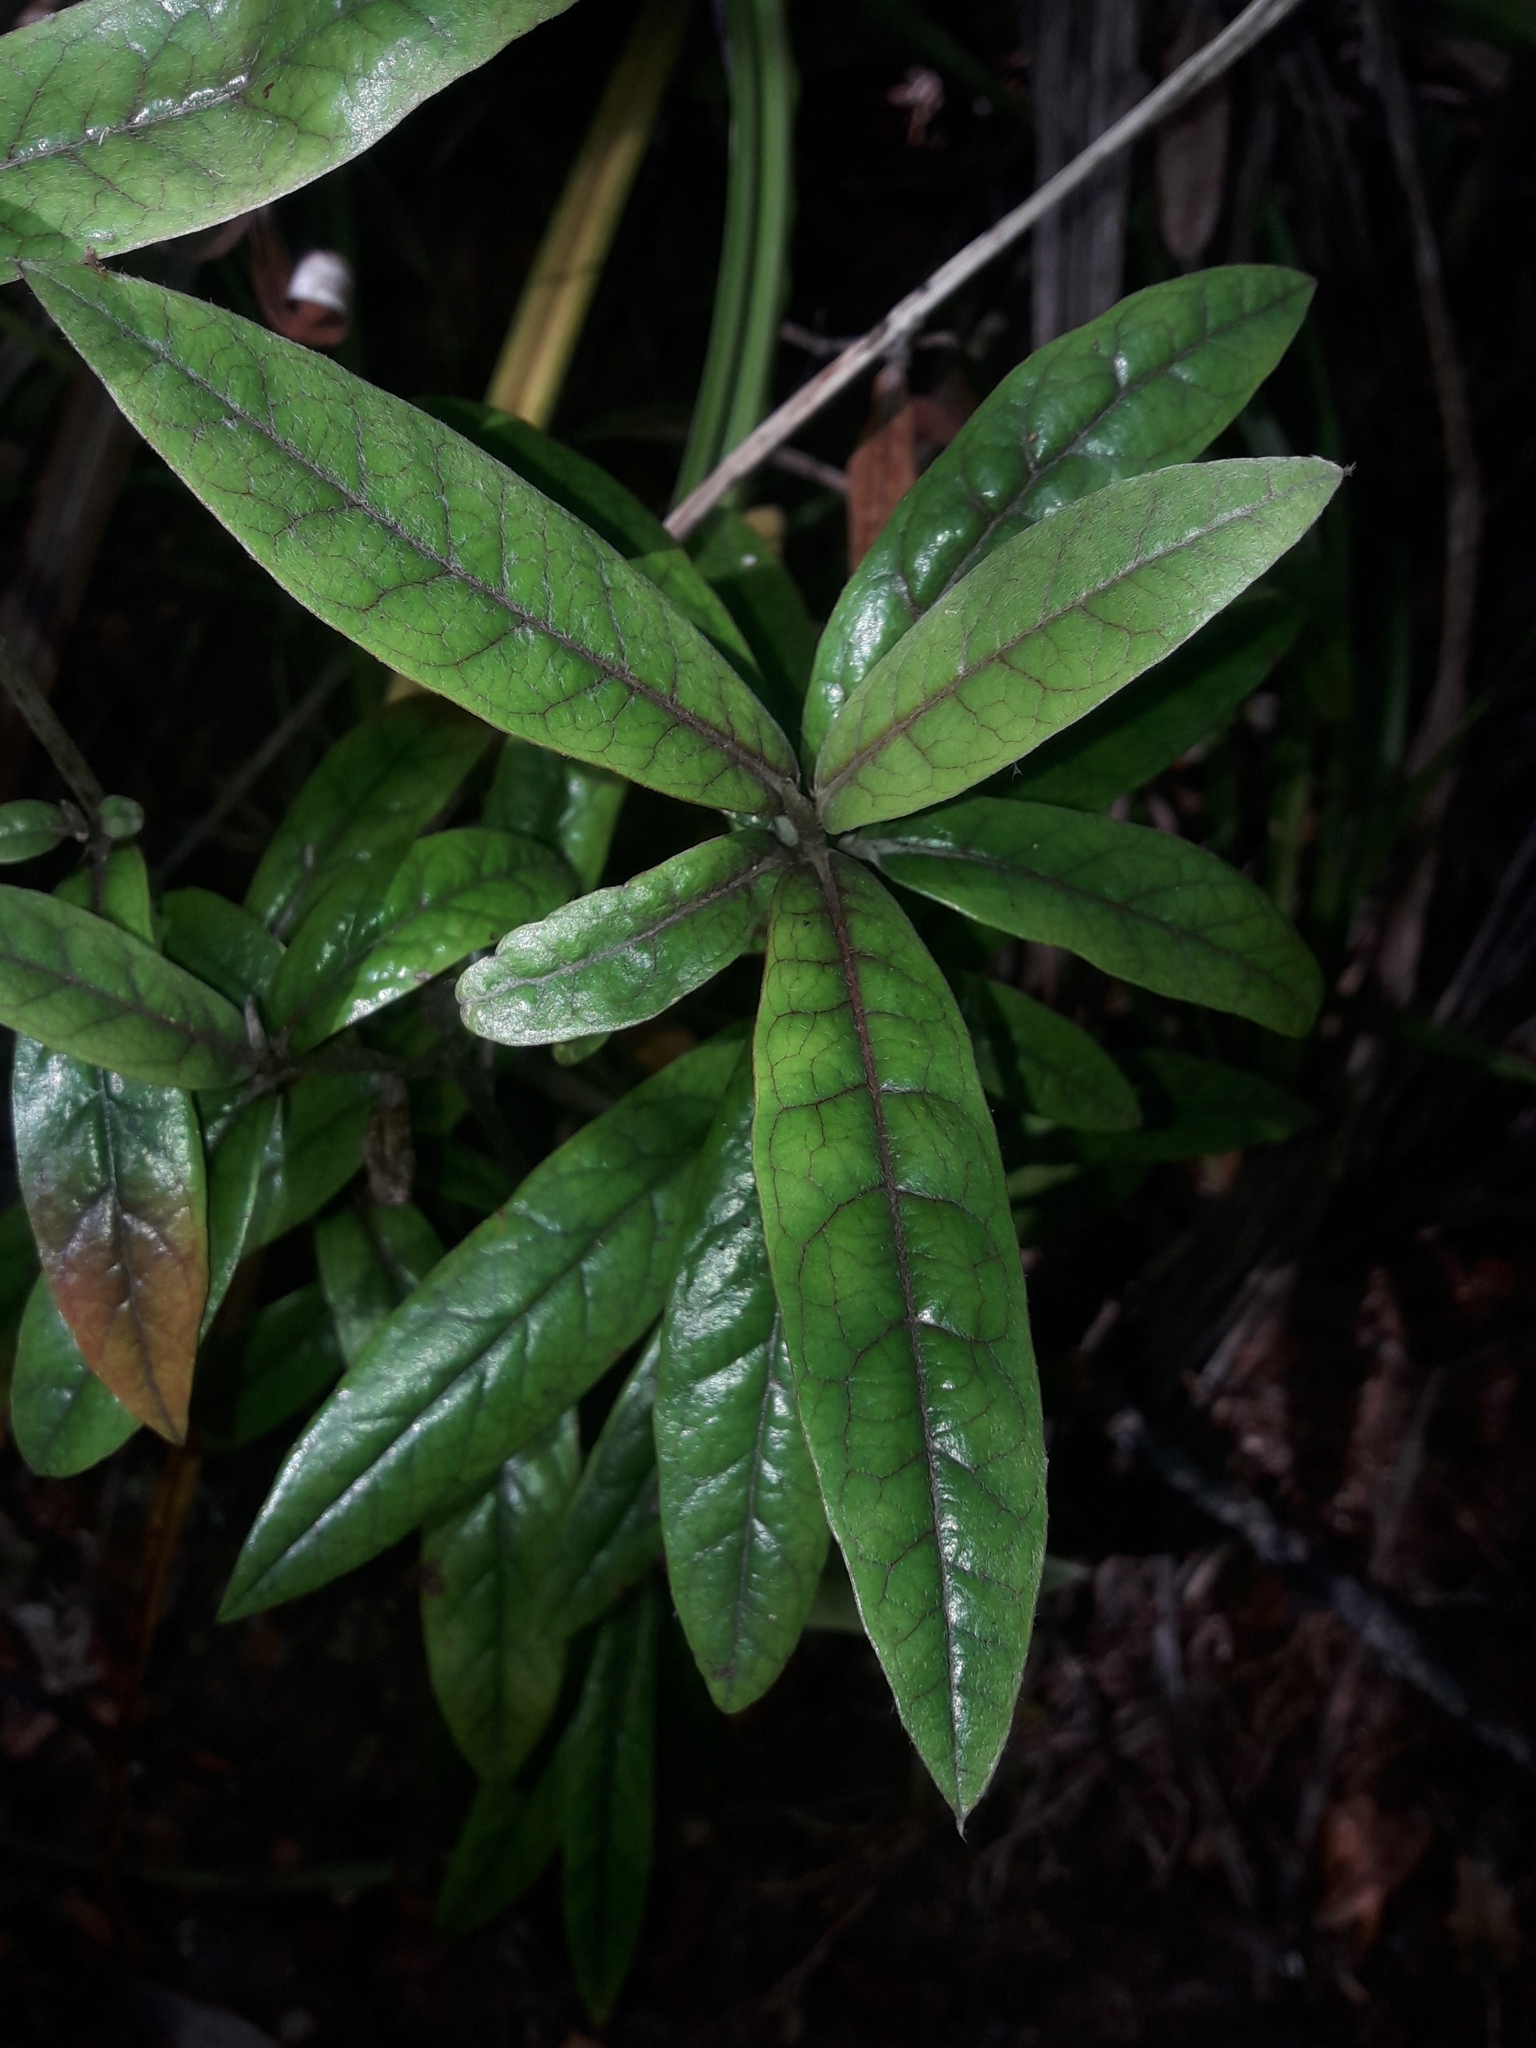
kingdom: Plantae
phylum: Tracheophyta
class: Magnoliopsida
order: Asterales
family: Argophyllaceae
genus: Corokia
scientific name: Corokia buddleioides
